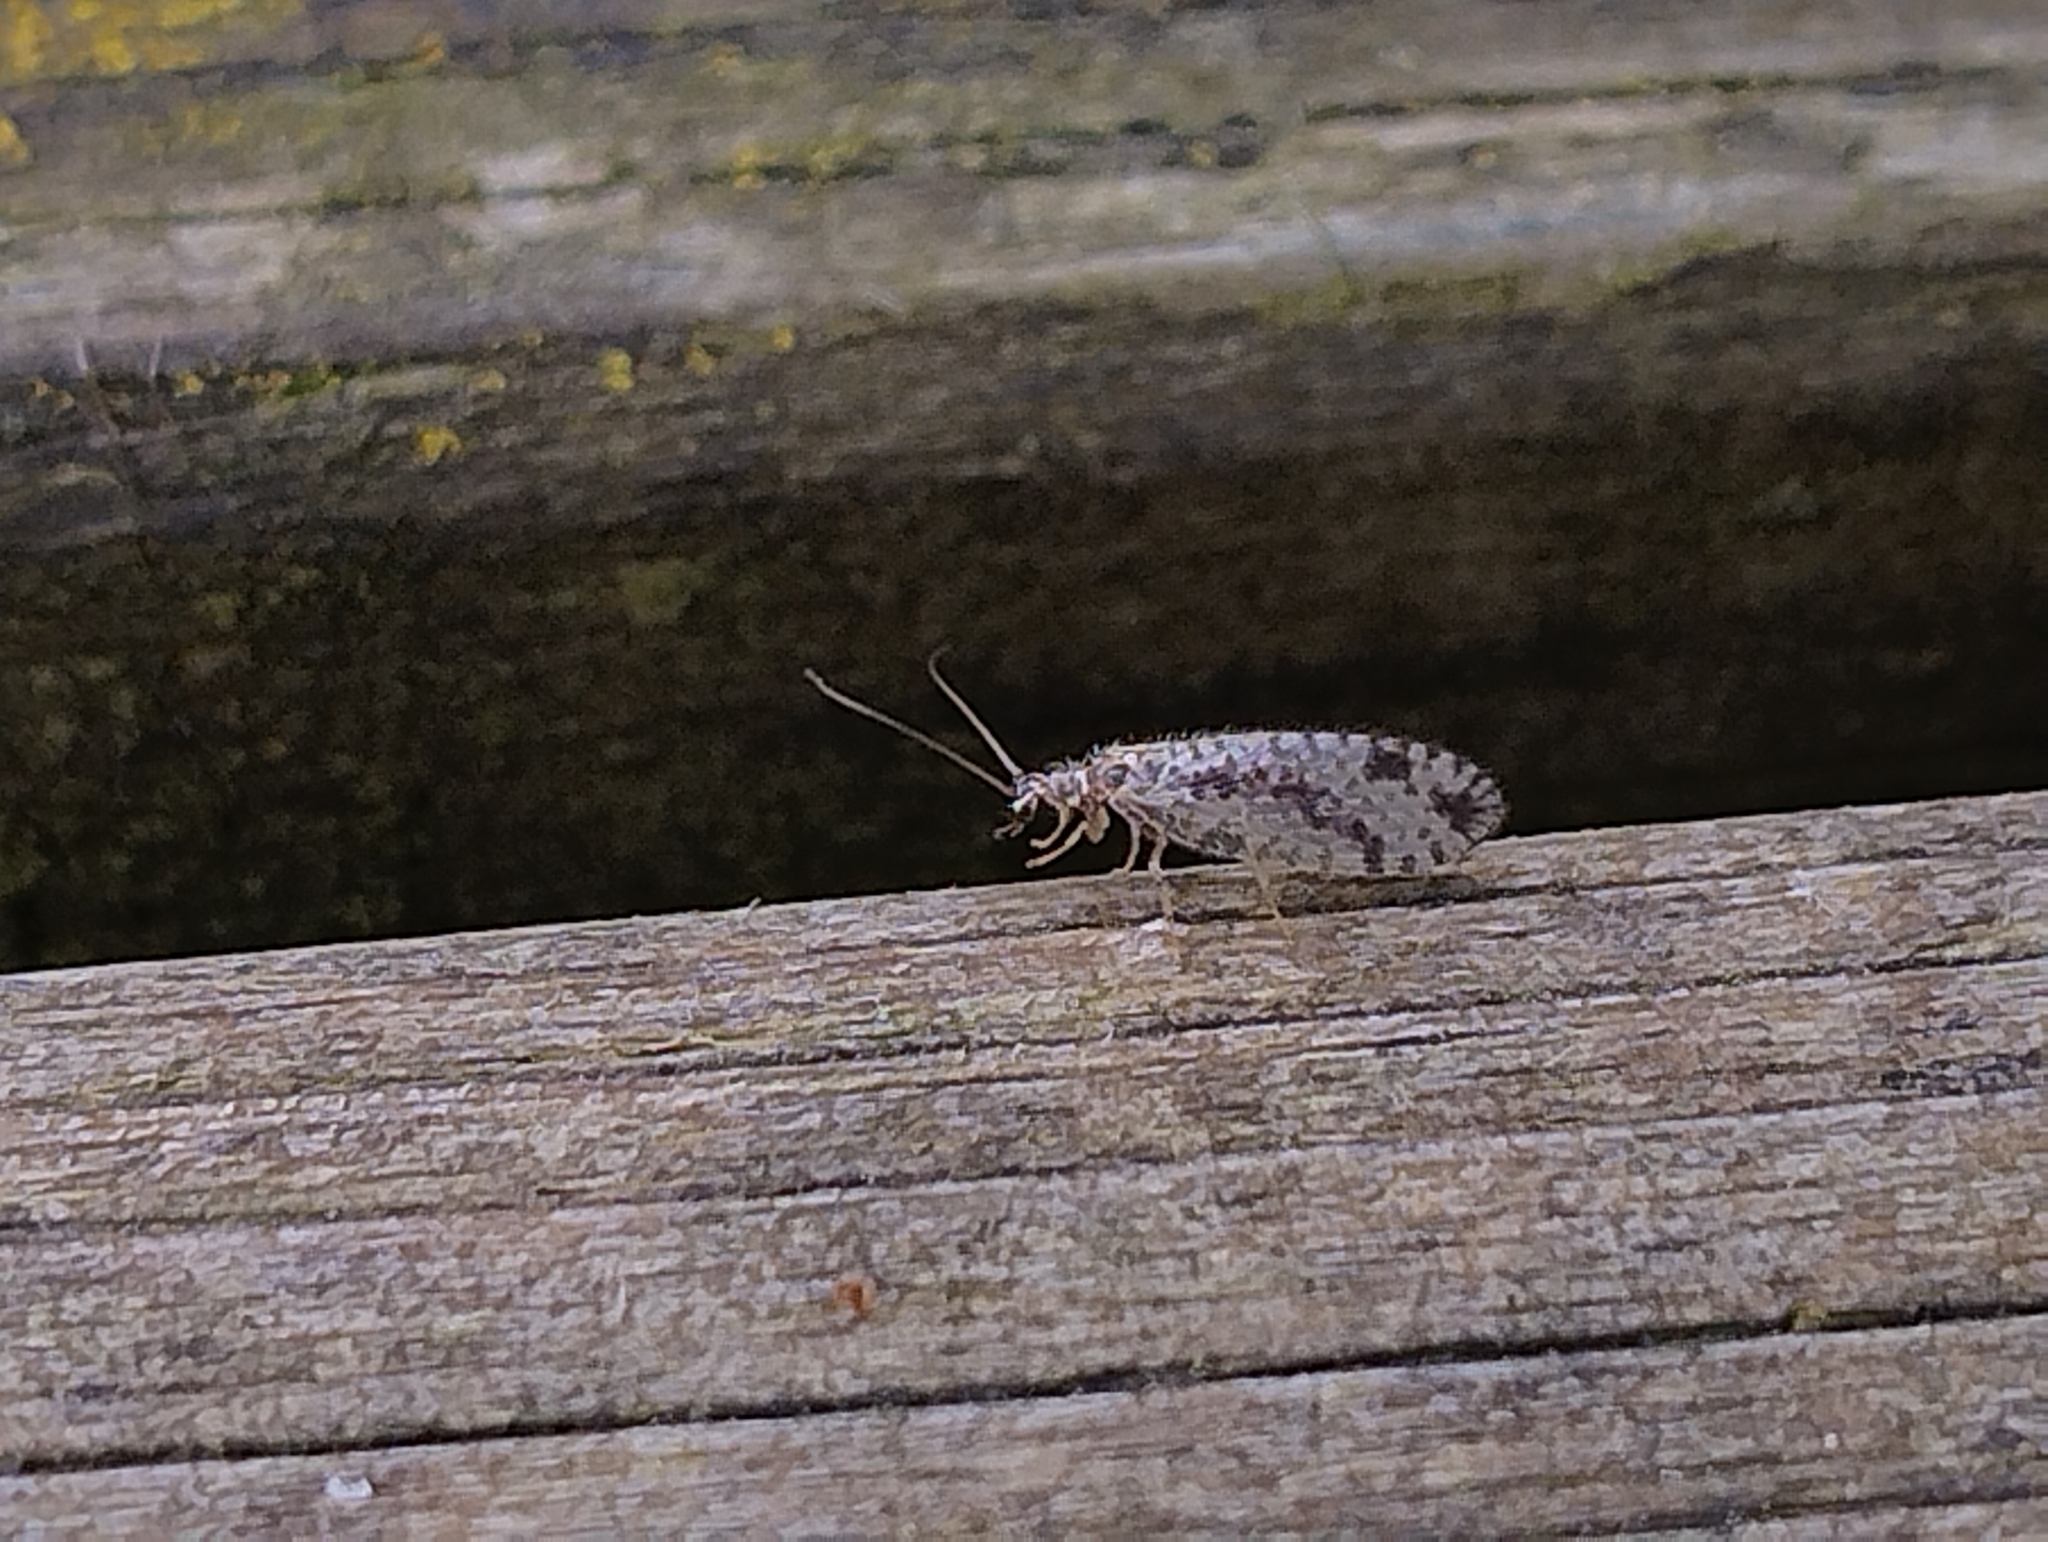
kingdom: Animalia
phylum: Arthropoda
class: Insecta
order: Neuroptera
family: Hemerobiidae
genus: Micromus
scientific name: Micromus variegatus
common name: Brown lacewing
